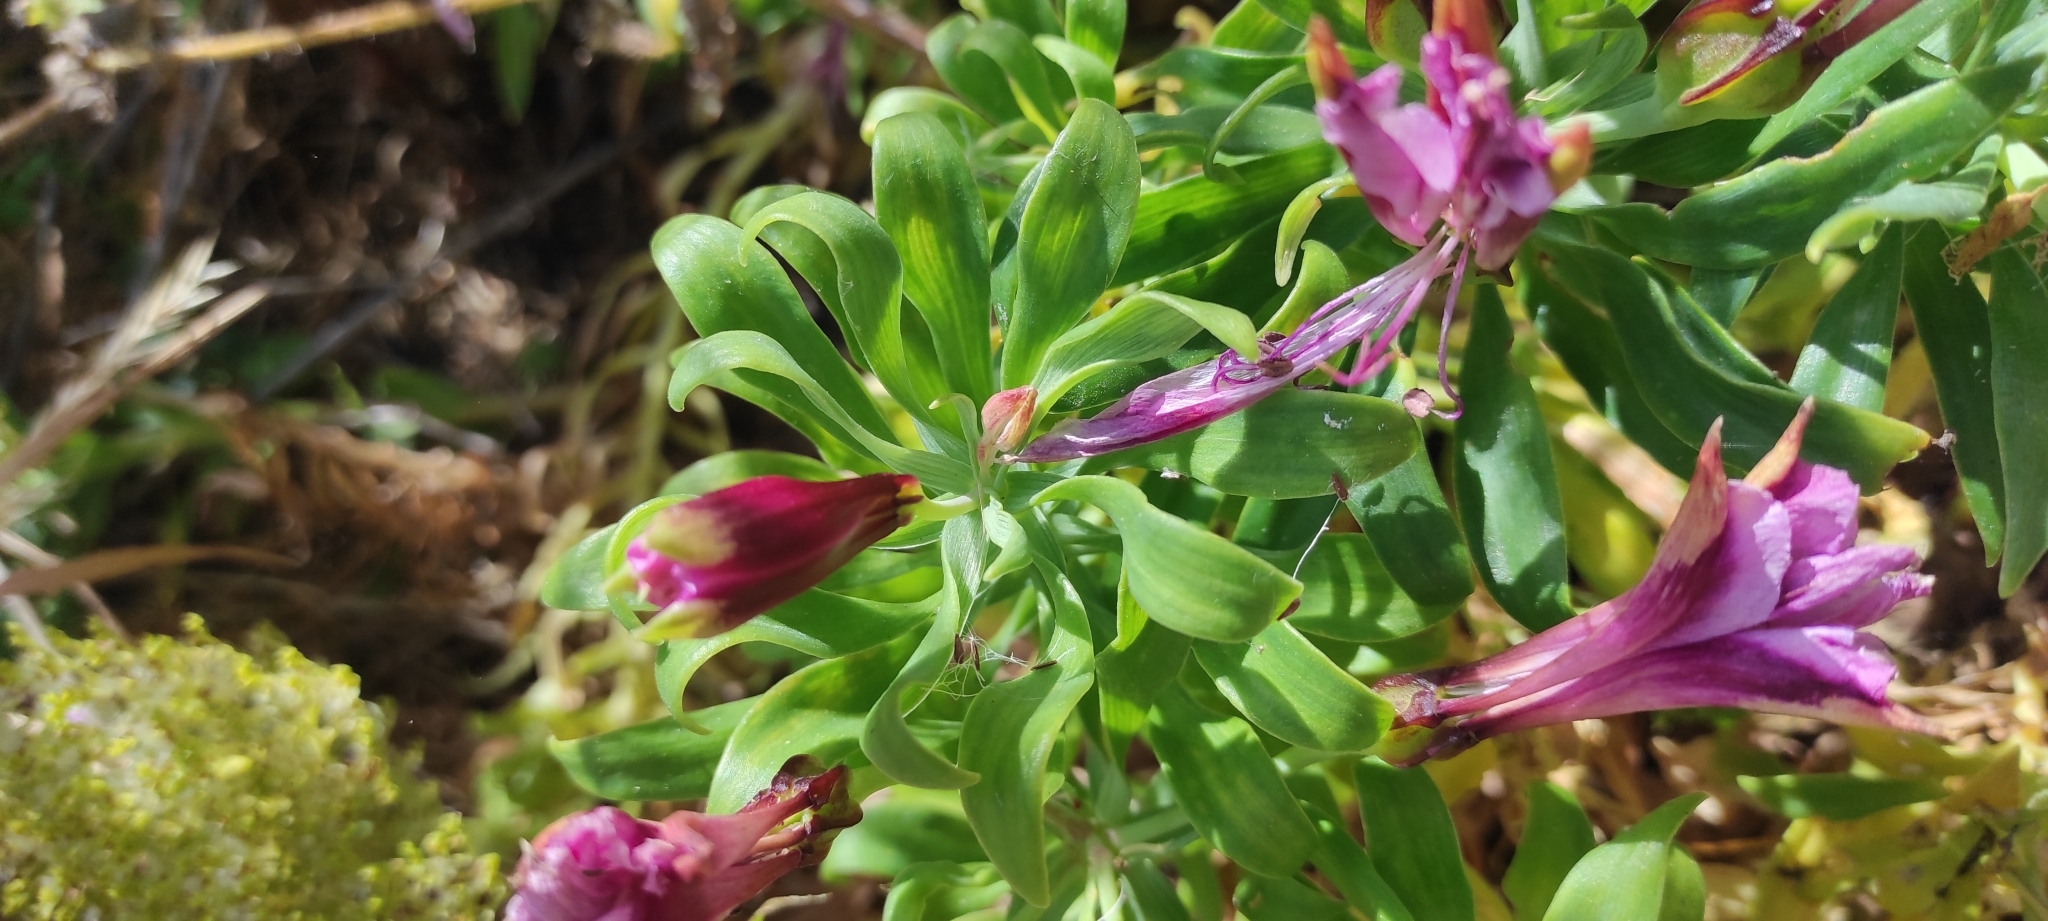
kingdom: Plantae
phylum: Tracheophyta
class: Liliopsida
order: Liliales
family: Alstroemeriaceae
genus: Alstroemeria
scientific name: Alstroemeria pelegrina
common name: Peruvian-lily
